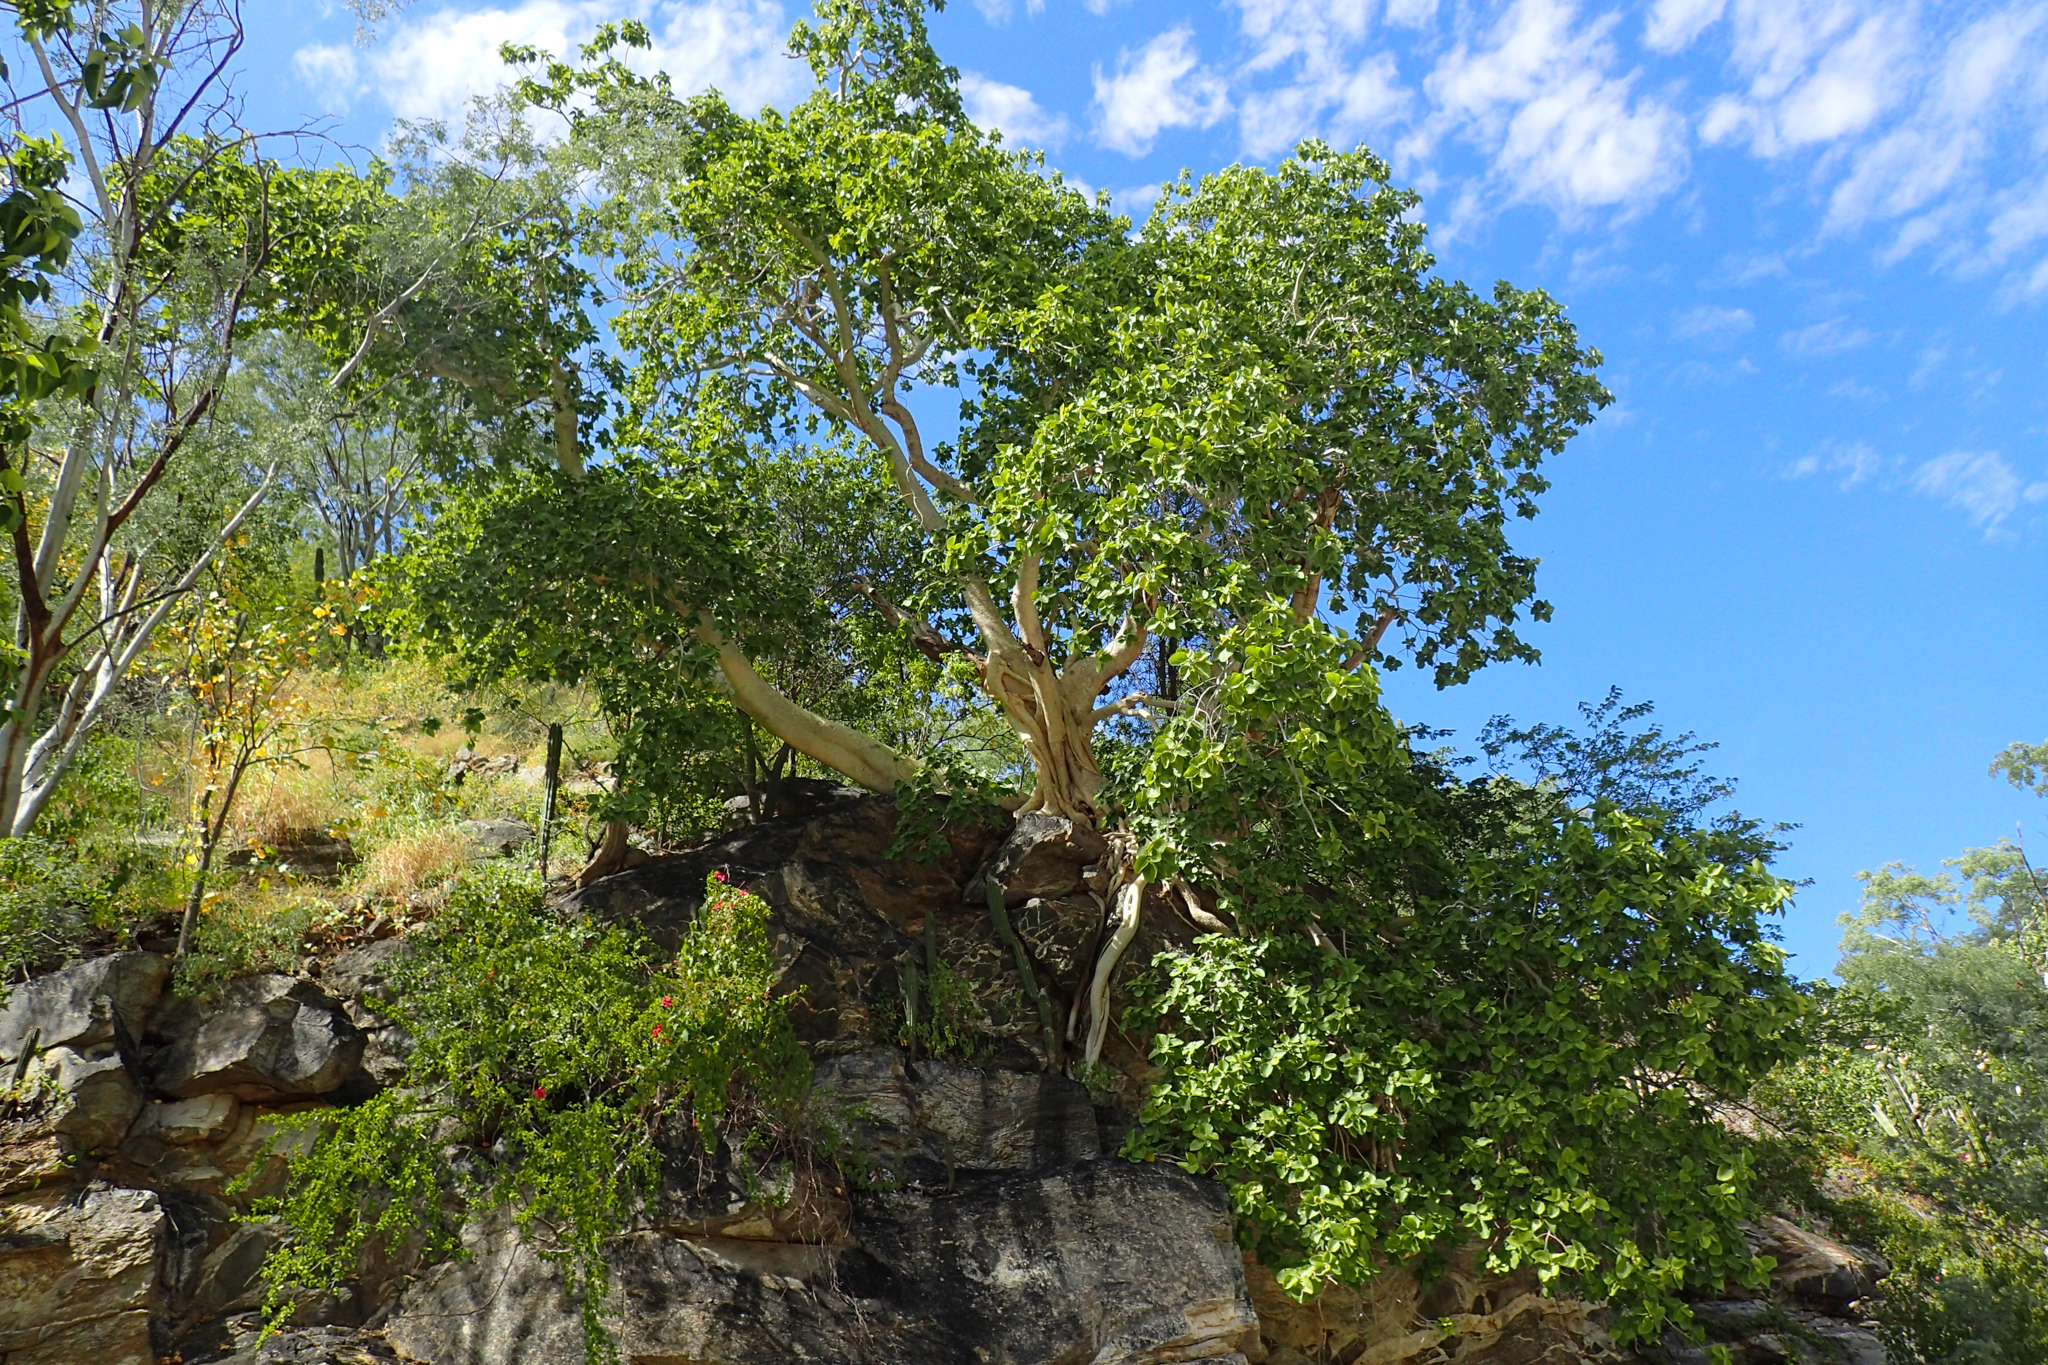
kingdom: Plantae
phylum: Tracheophyta
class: Magnoliopsida
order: Rosales
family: Moraceae
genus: Ficus
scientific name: Ficus petiolaris
